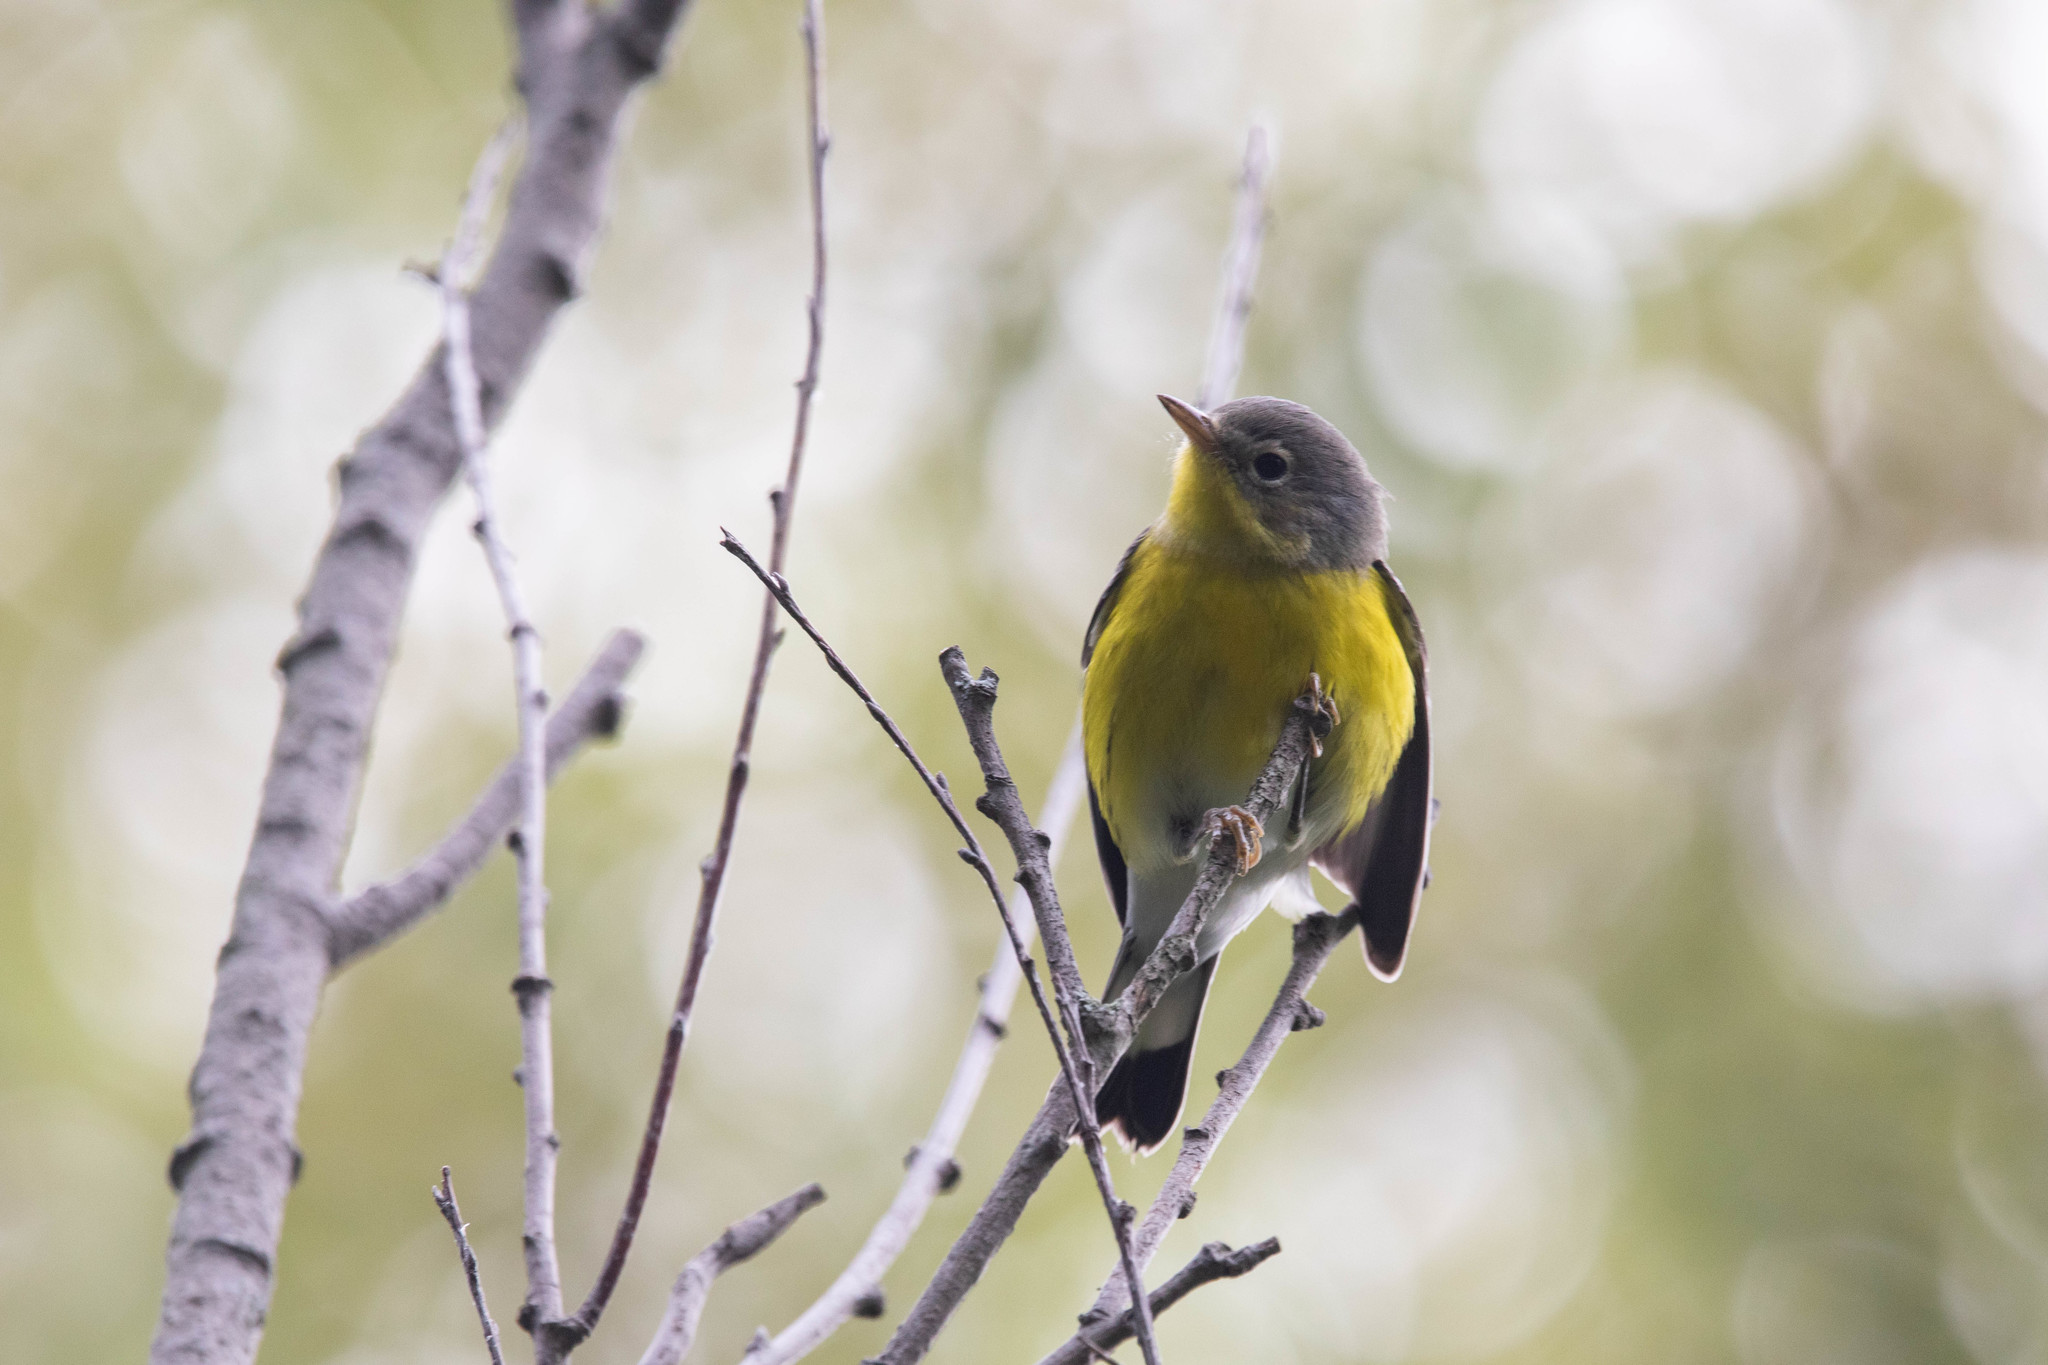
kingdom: Animalia
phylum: Chordata
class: Aves
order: Passeriformes
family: Parulidae
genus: Setophaga
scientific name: Setophaga magnolia
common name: Magnolia warbler
